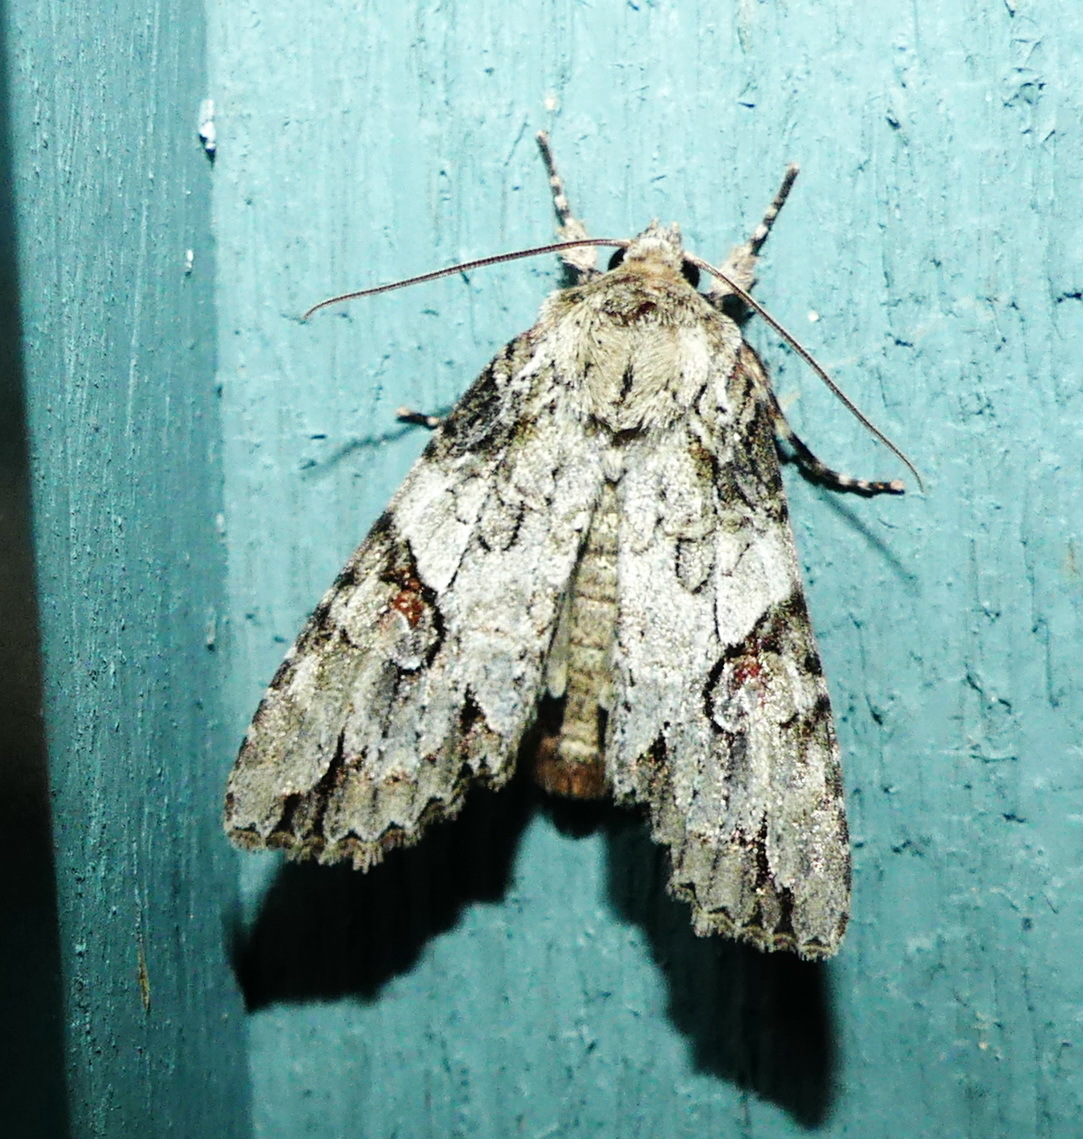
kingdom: Animalia
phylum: Arthropoda
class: Insecta
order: Lepidoptera
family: Noctuidae
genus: Achatia
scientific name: Achatia latex
